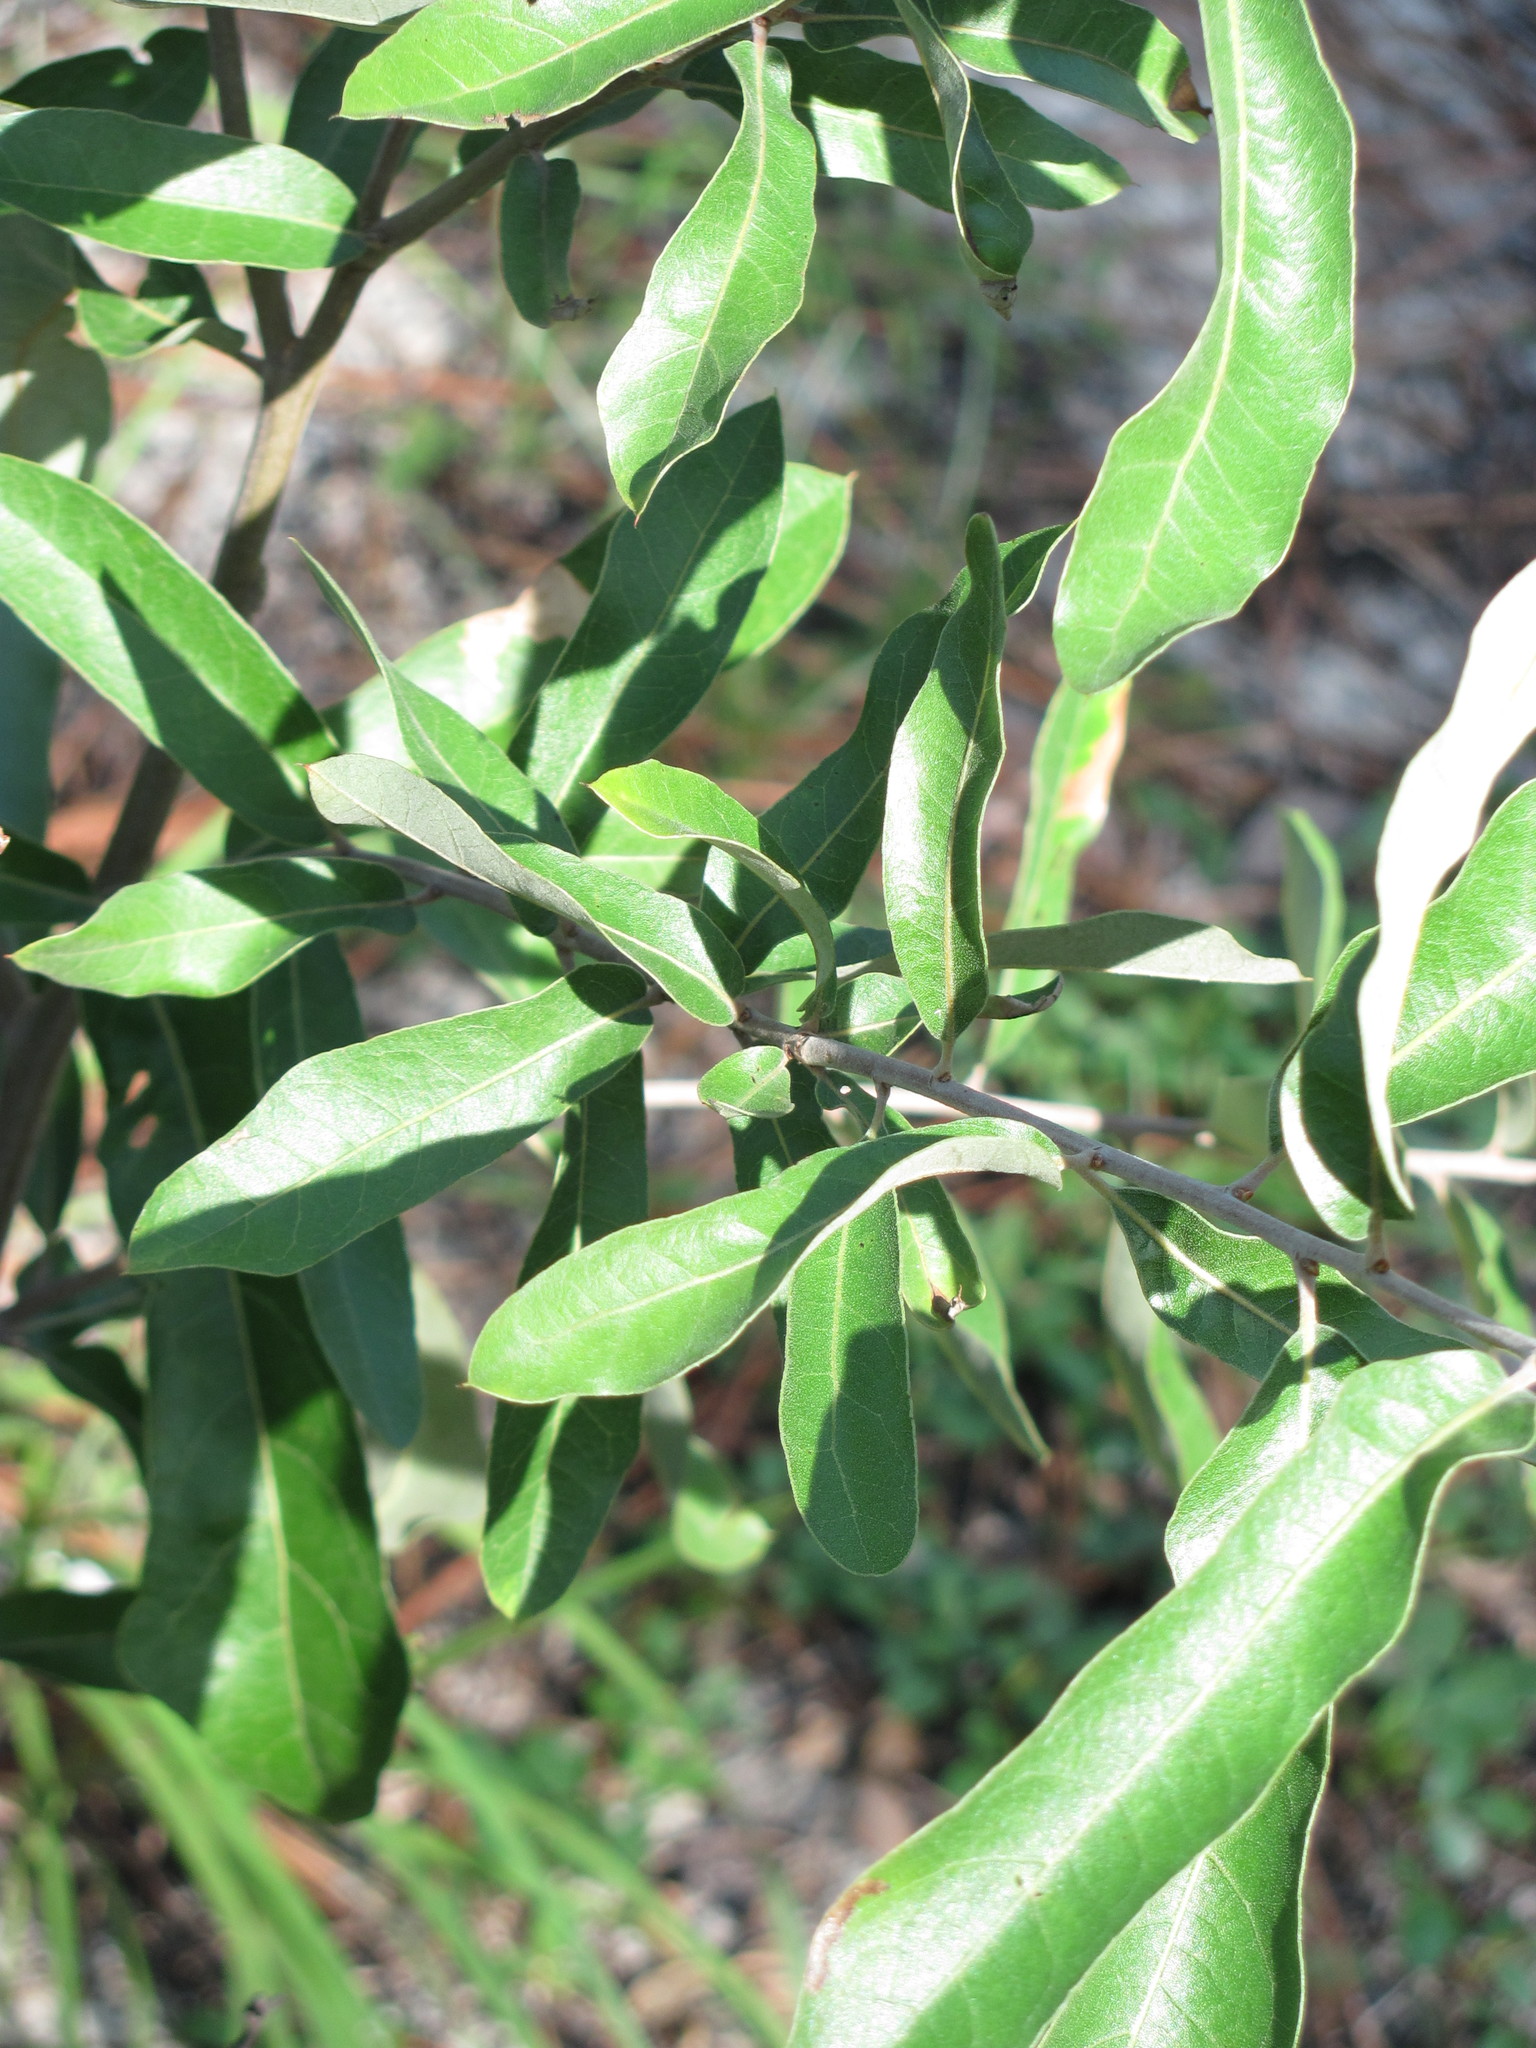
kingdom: Plantae
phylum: Tracheophyta
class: Magnoliopsida
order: Fagales
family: Fagaceae
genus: Quercus
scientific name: Quercus incana
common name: Bluejack oak
